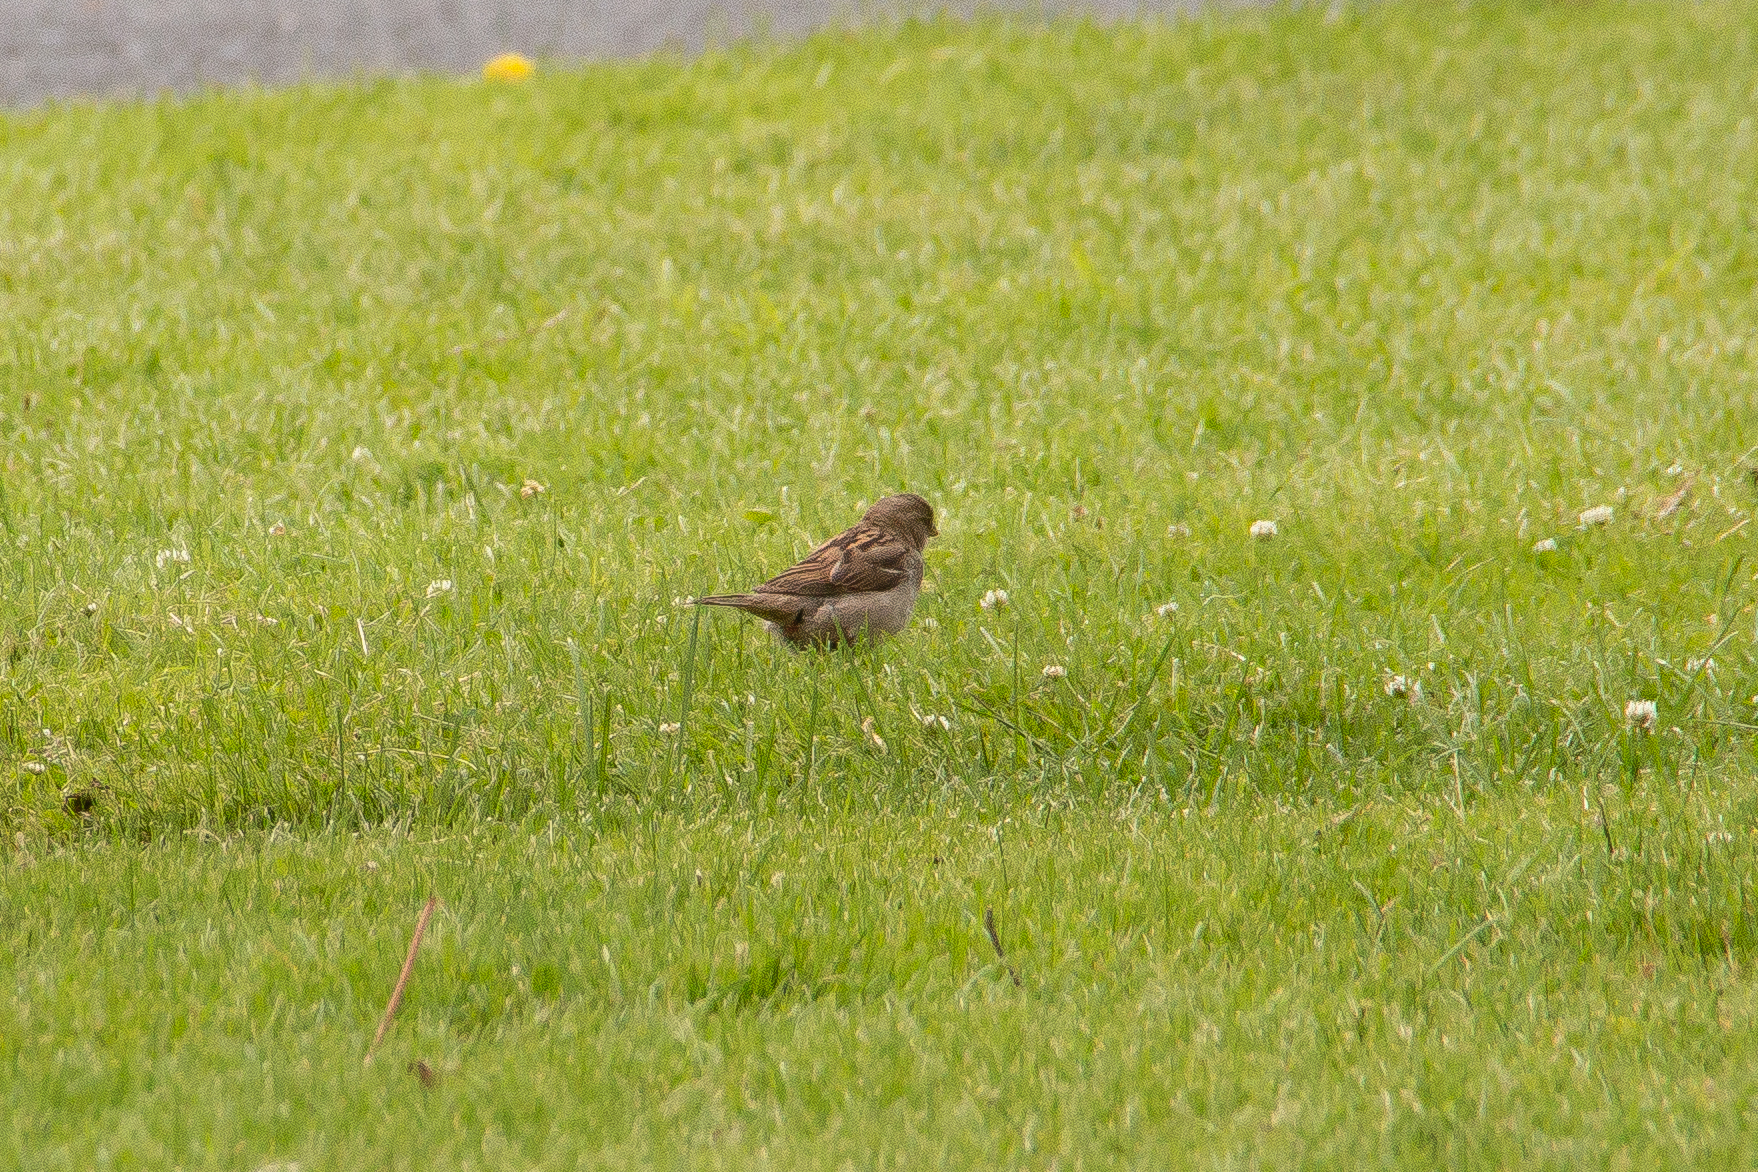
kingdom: Animalia
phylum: Chordata
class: Aves
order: Passeriformes
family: Passeridae
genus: Passer
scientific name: Passer domesticus
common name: House sparrow
